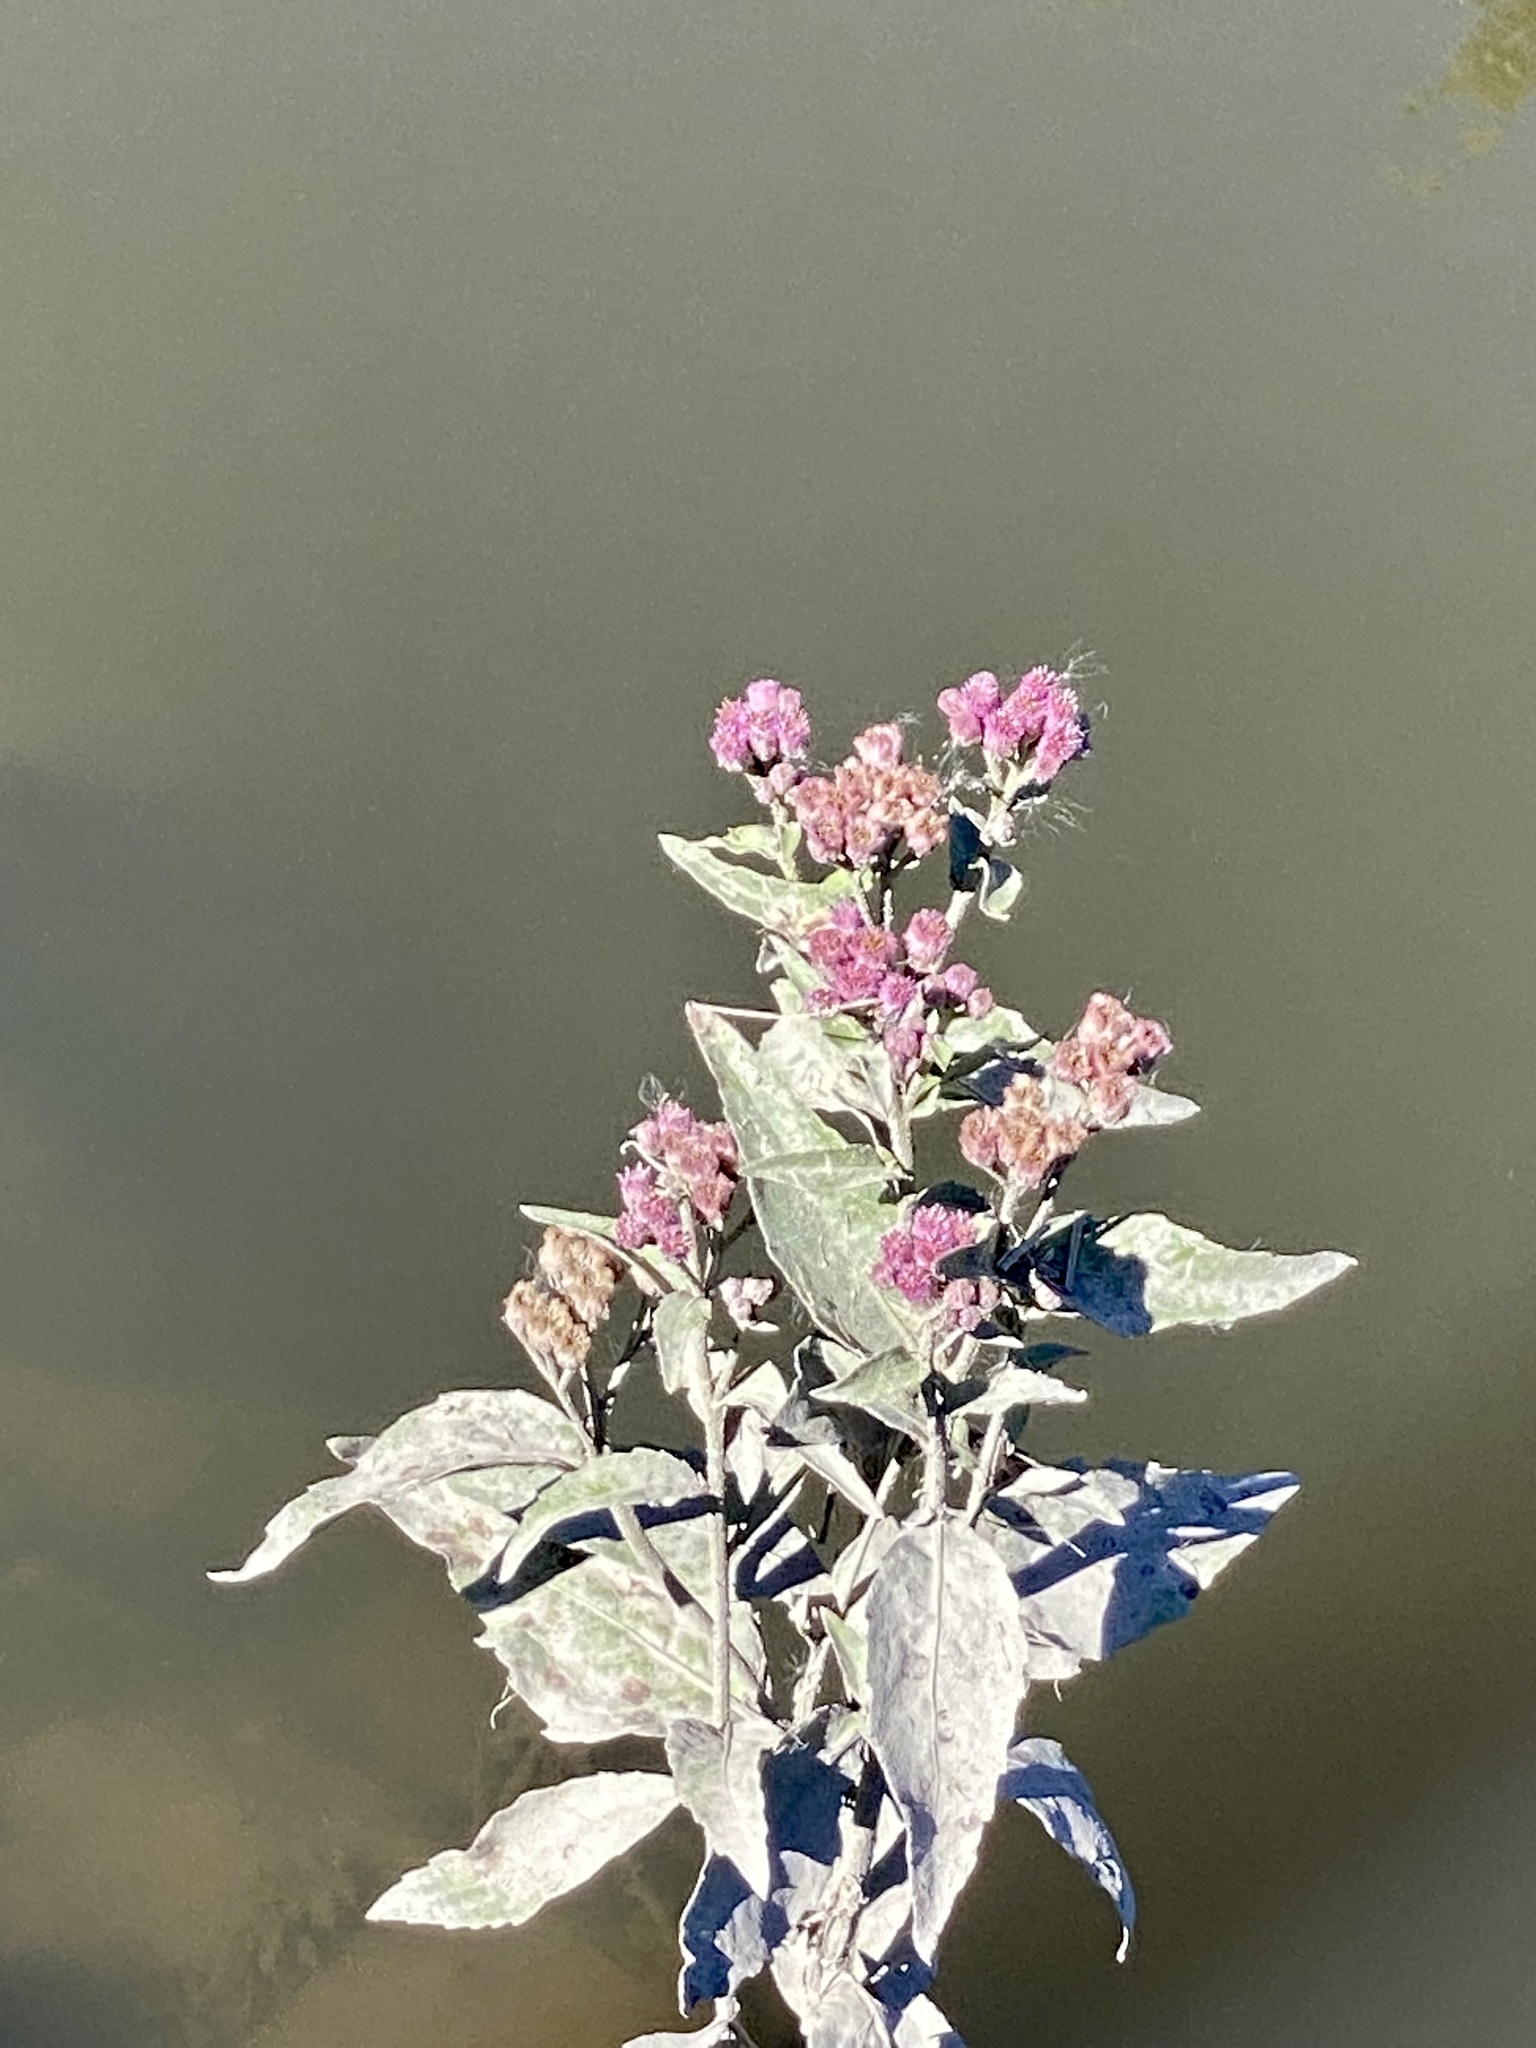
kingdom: Plantae
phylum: Tracheophyta
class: Magnoliopsida
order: Asterales
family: Asteraceae
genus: Pluchea
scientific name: Pluchea odorata
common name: Saltmarsh fleabane
